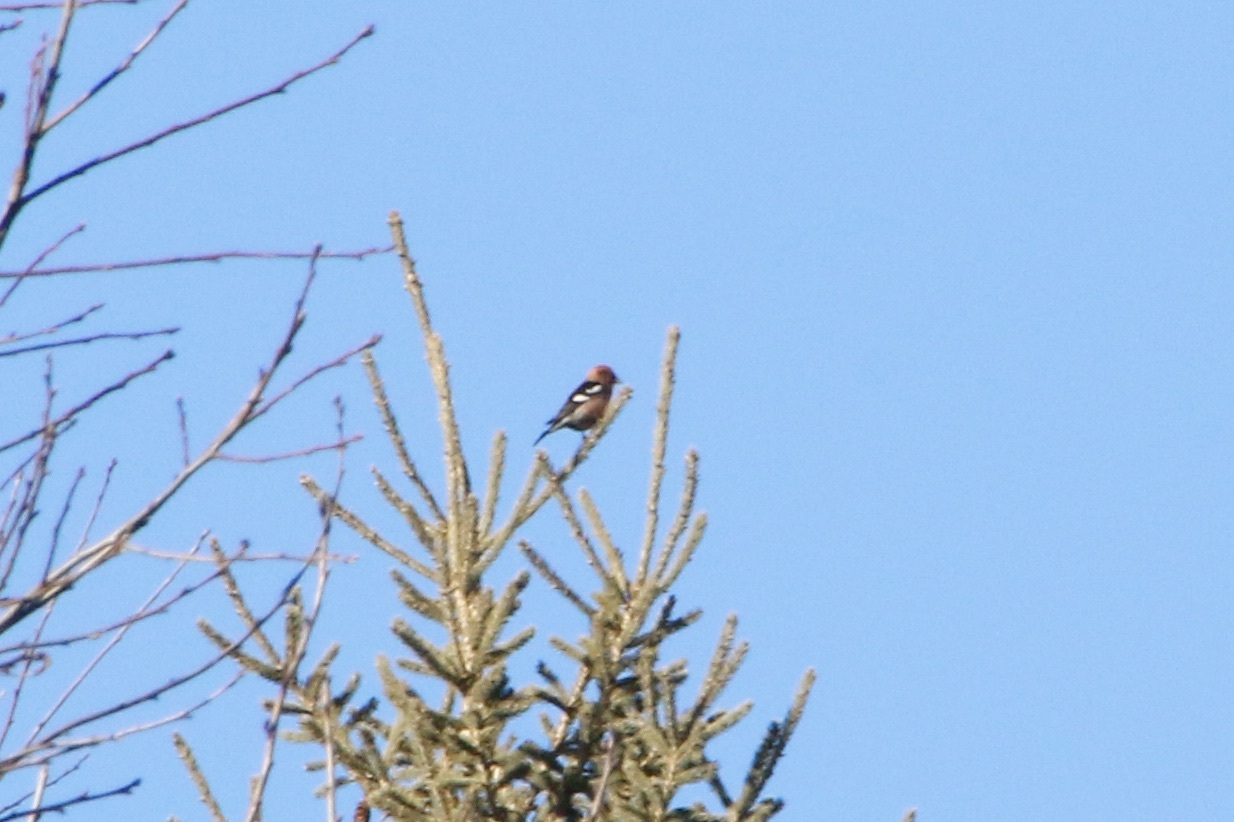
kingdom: Animalia
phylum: Chordata
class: Aves
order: Passeriformes
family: Fringillidae
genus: Loxia
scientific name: Loxia leucoptera
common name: Two-barred crossbill
